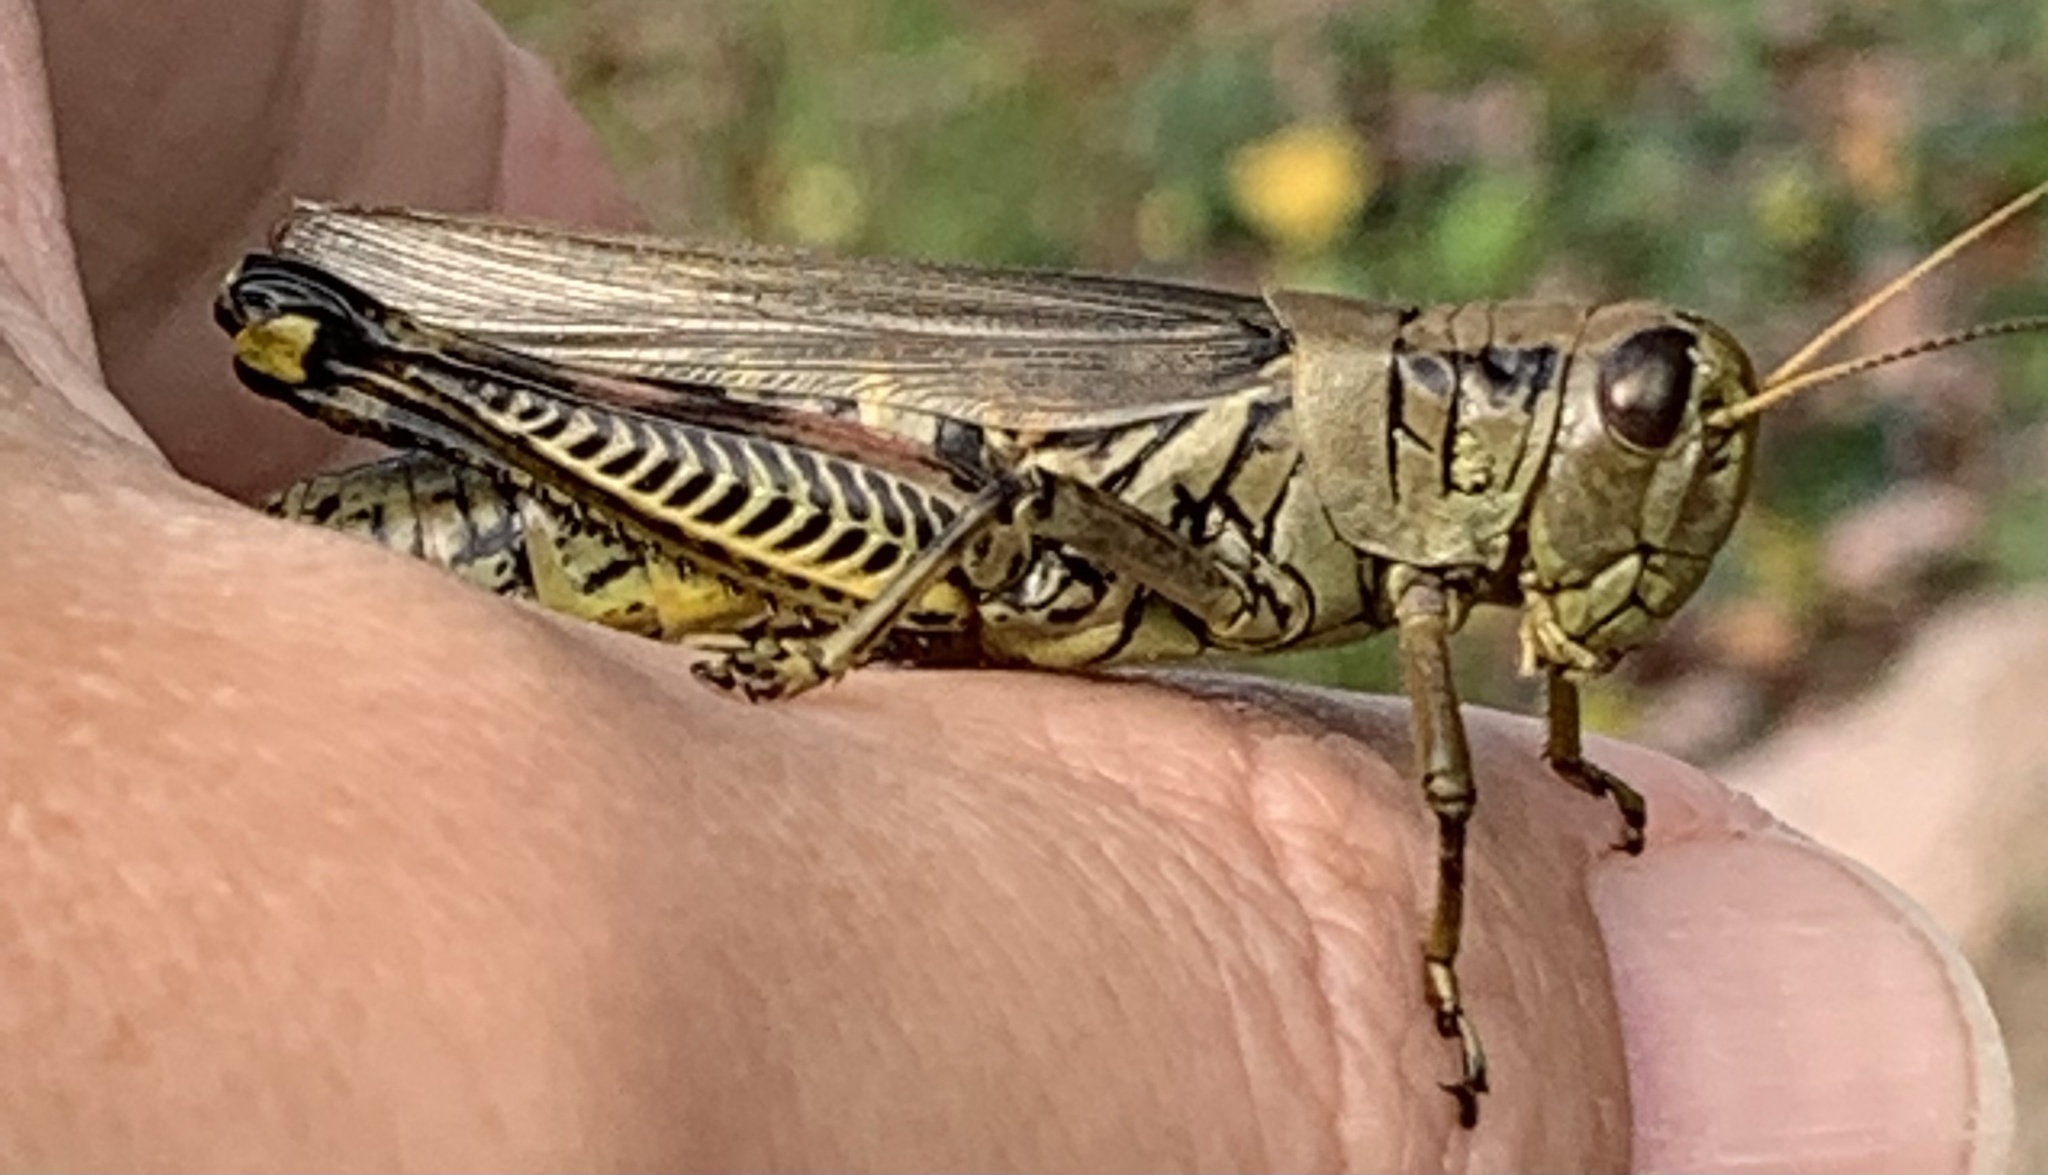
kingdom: Animalia
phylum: Arthropoda
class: Insecta
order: Orthoptera
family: Acrididae
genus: Melanoplus
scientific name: Melanoplus differentialis
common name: Differential grasshopper
